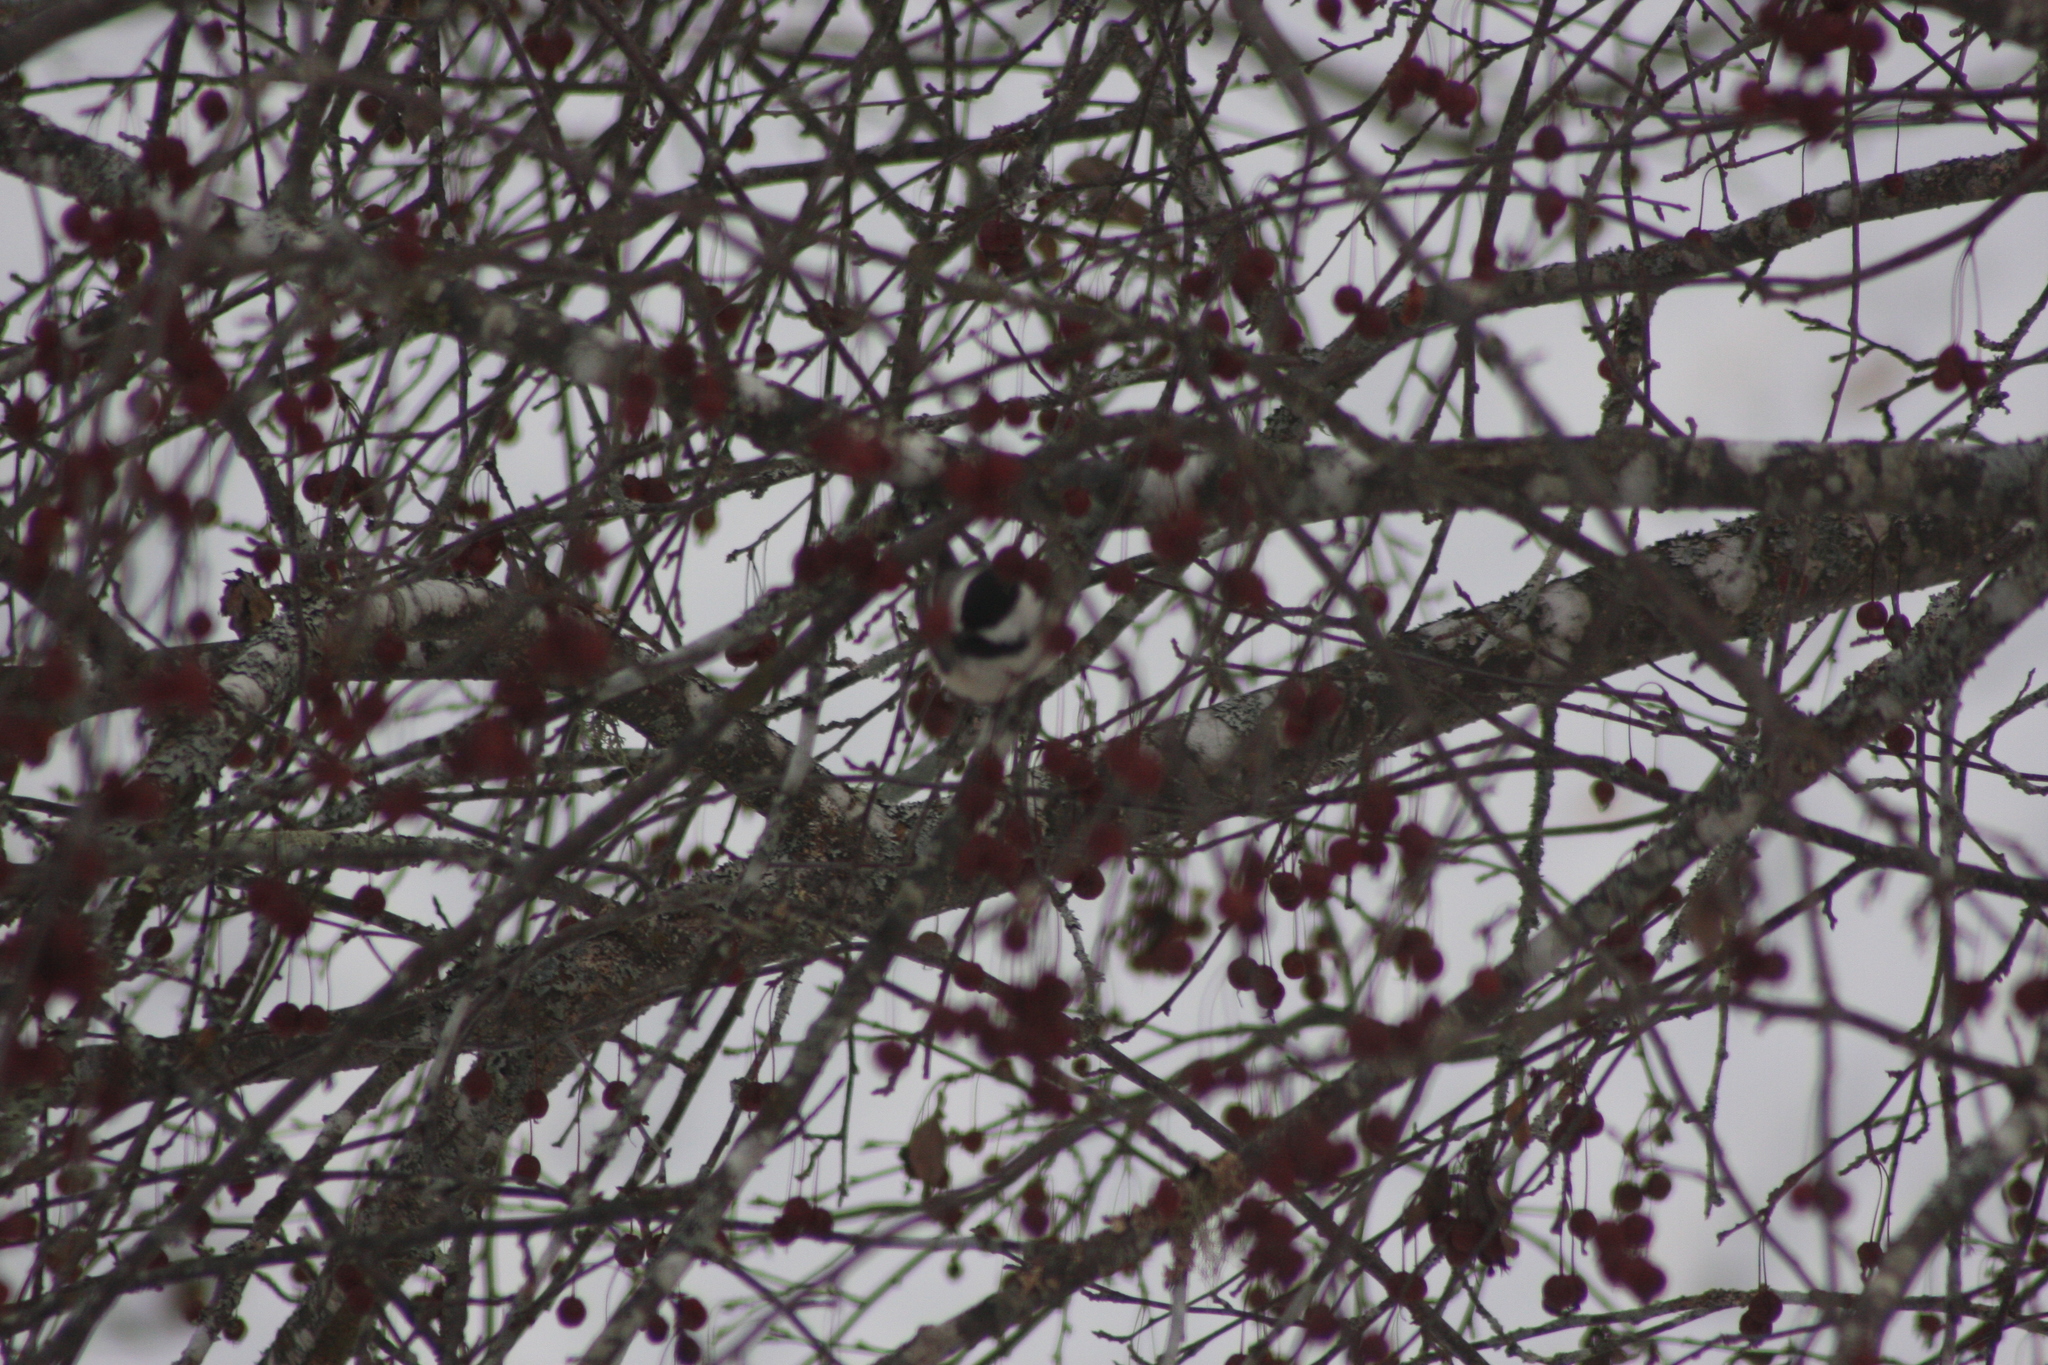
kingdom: Animalia
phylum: Chordata
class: Aves
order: Passeriformes
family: Paridae
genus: Poecile
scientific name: Poecile atricapillus
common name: Black-capped chickadee
